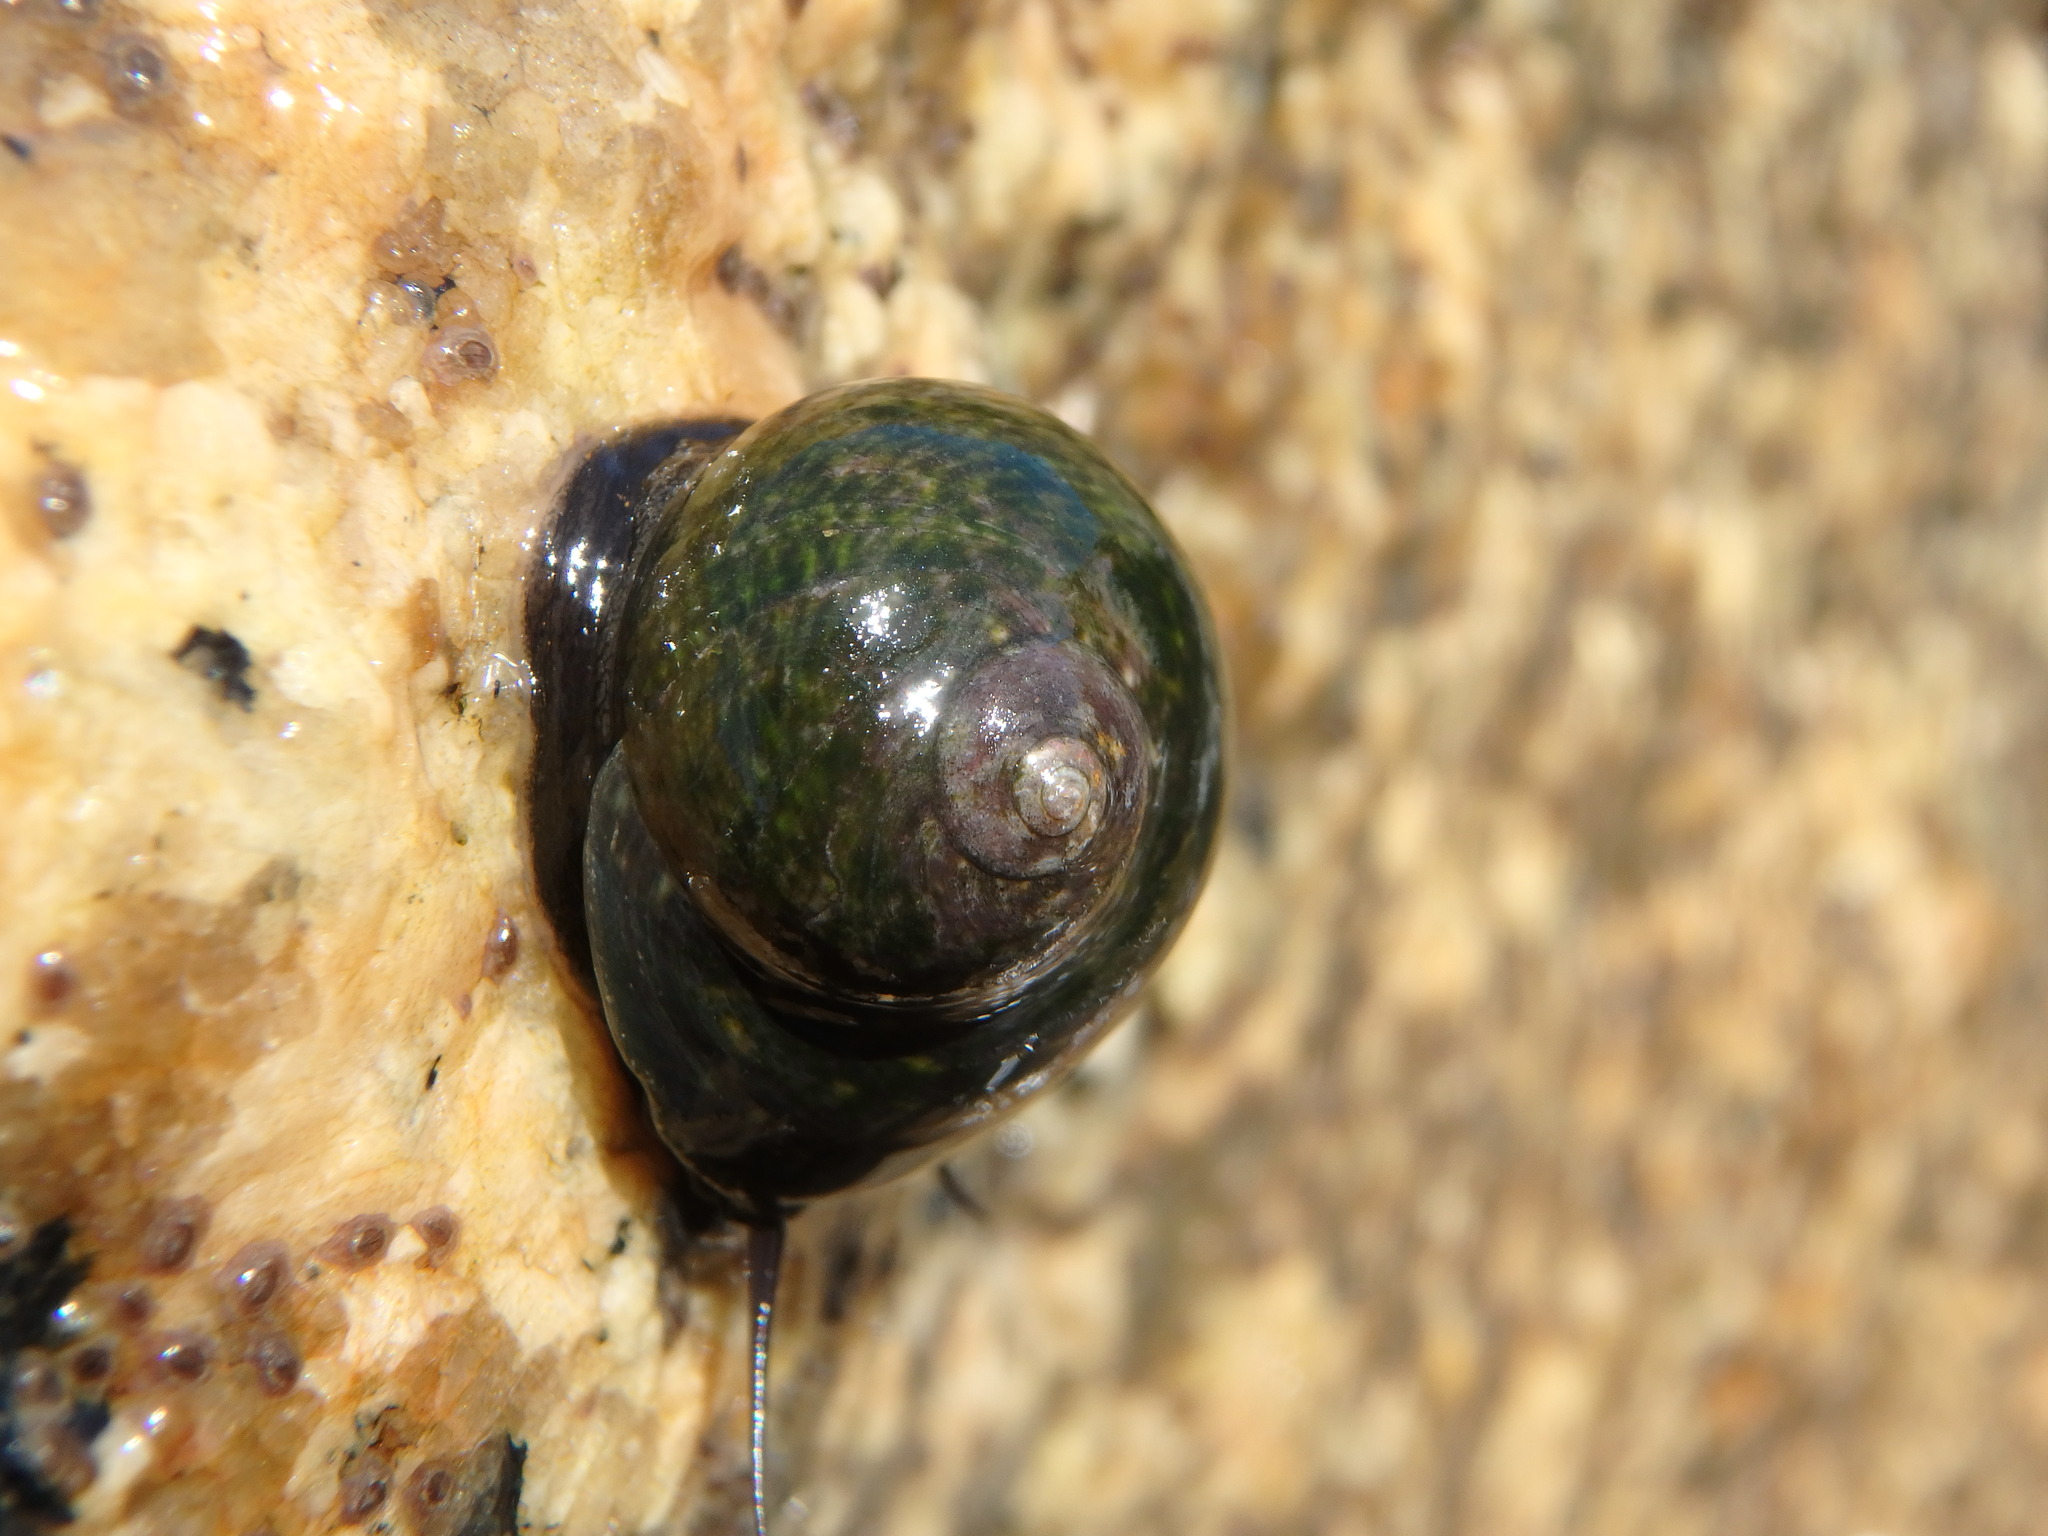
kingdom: Animalia
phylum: Mollusca
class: Gastropoda
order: Trochida
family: Trochidae
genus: Monodonta
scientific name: Monodonta perplexa
